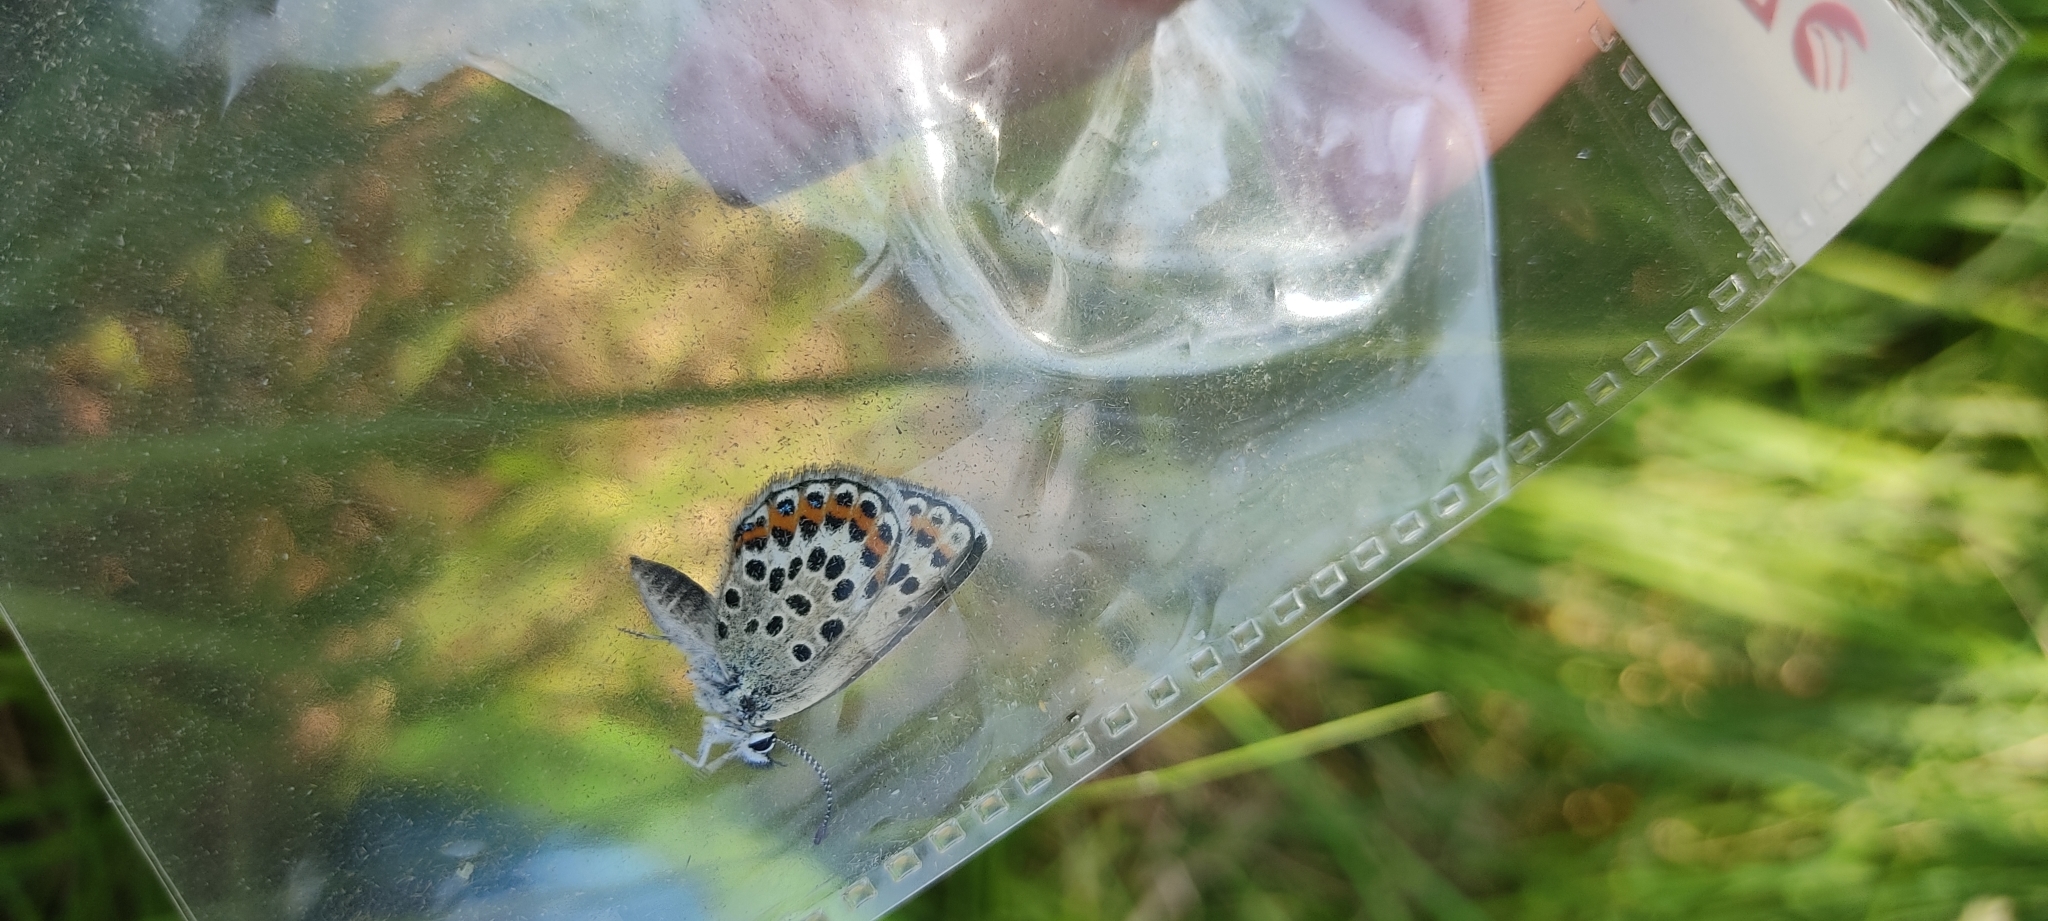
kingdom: Animalia
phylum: Arthropoda
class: Insecta
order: Lepidoptera
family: Lycaenidae
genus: Plebejus
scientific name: Plebejus argus
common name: Silver-studded blue
